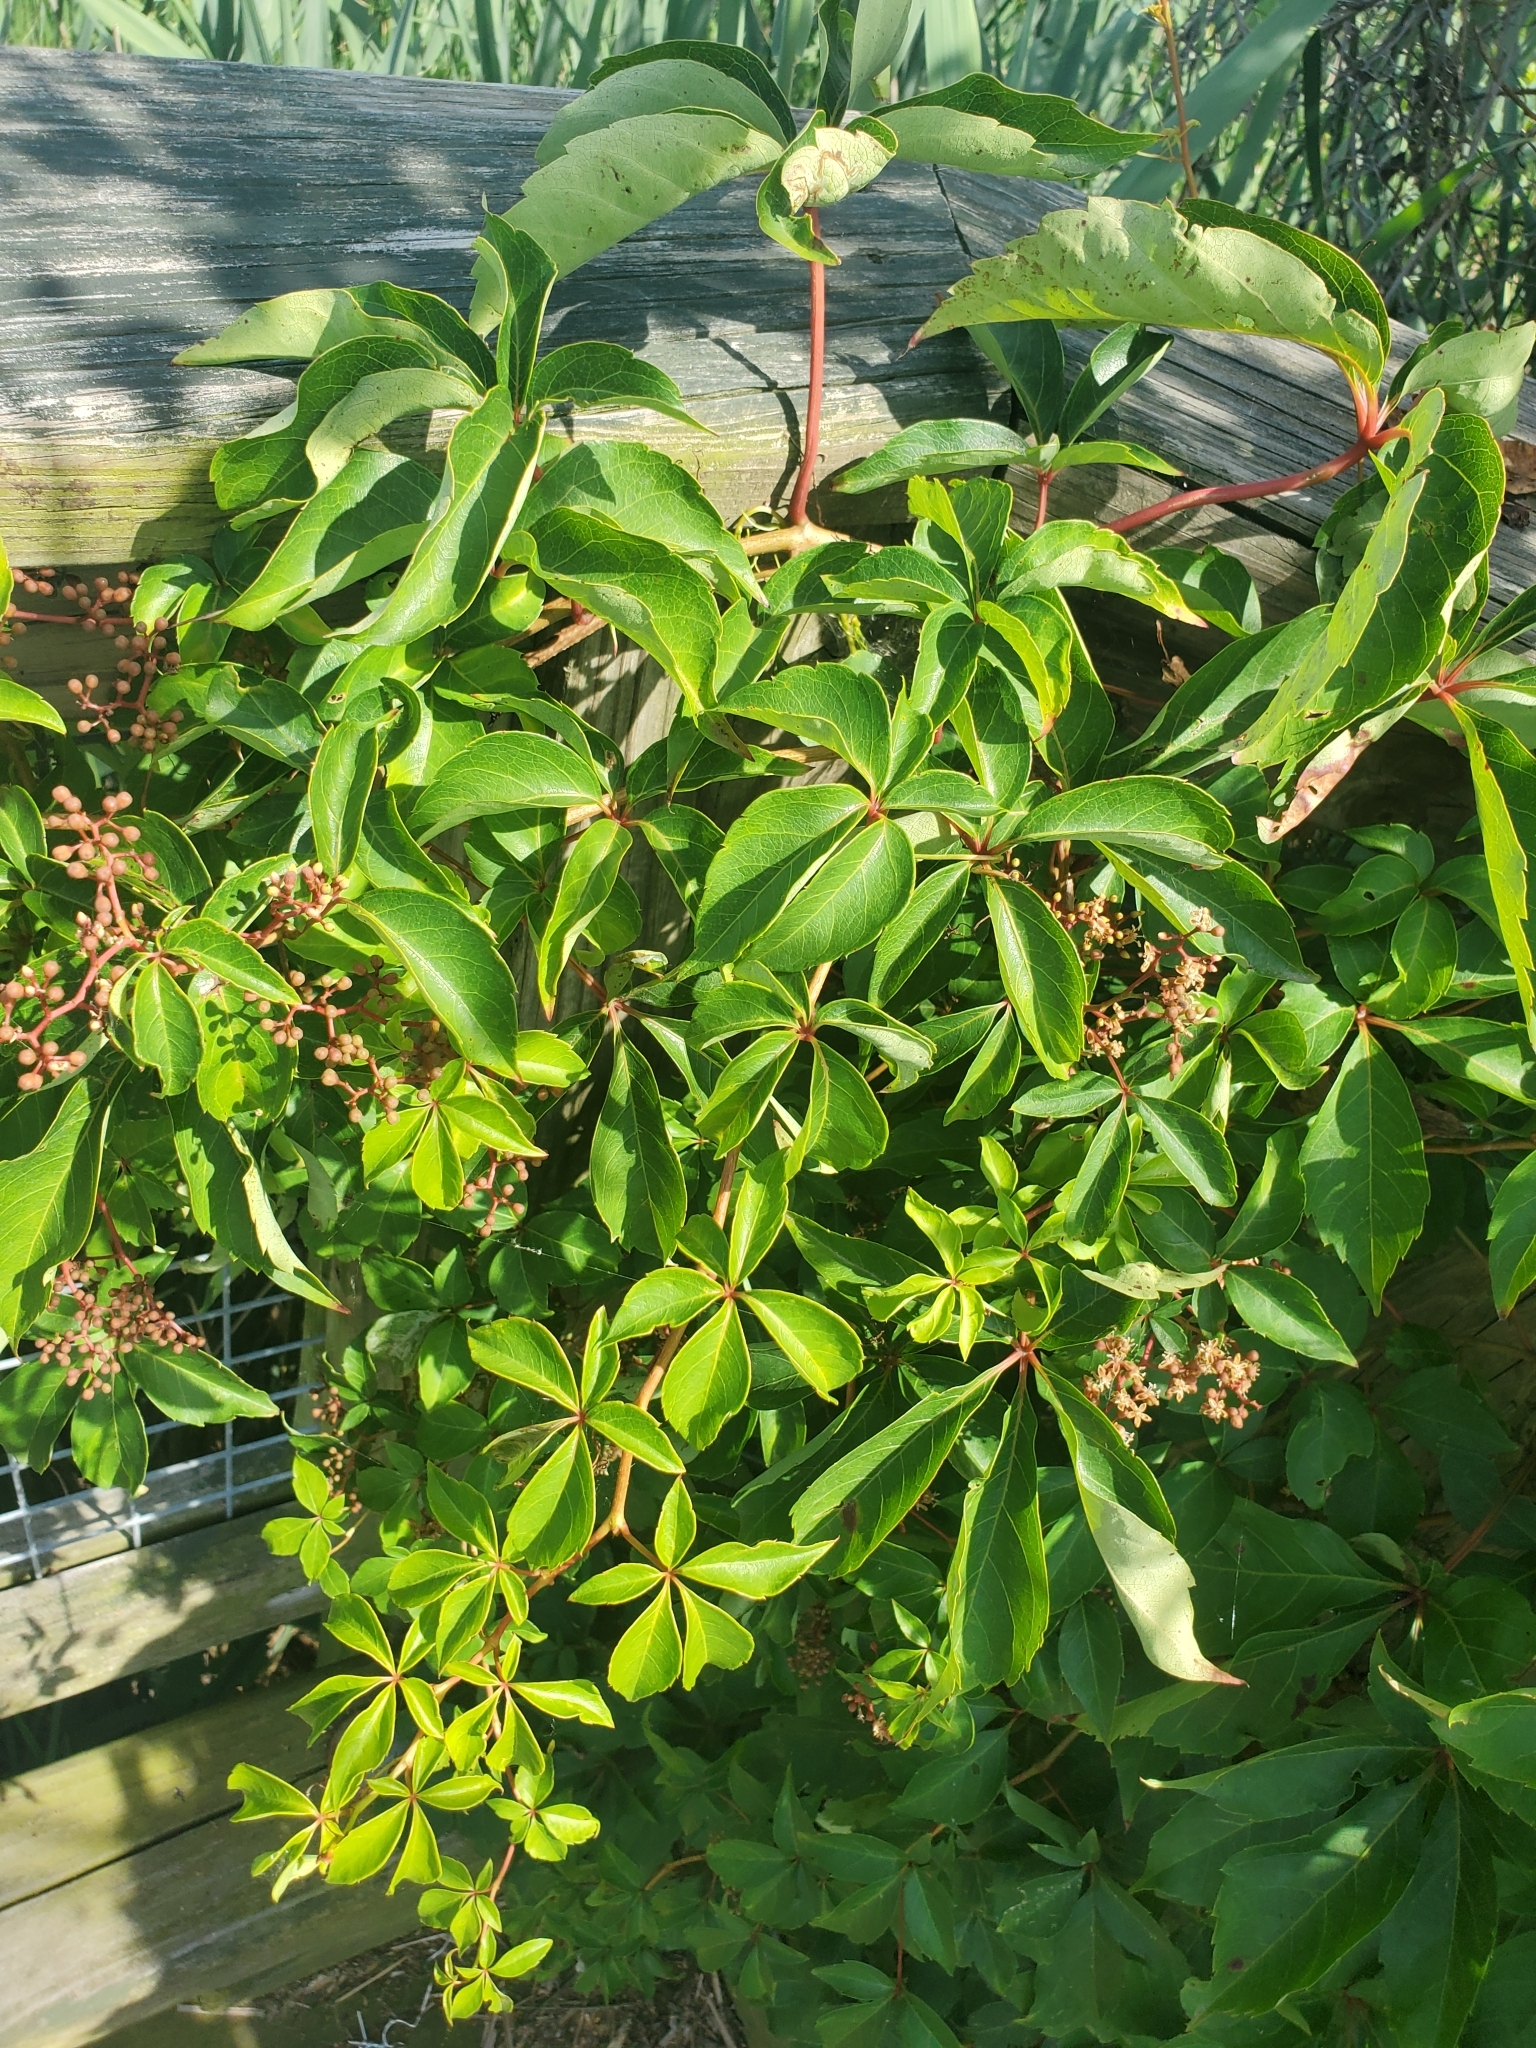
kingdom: Plantae
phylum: Tracheophyta
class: Magnoliopsida
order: Vitales
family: Vitaceae
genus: Parthenocissus
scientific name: Parthenocissus quinquefolia
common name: Virginia-creeper
